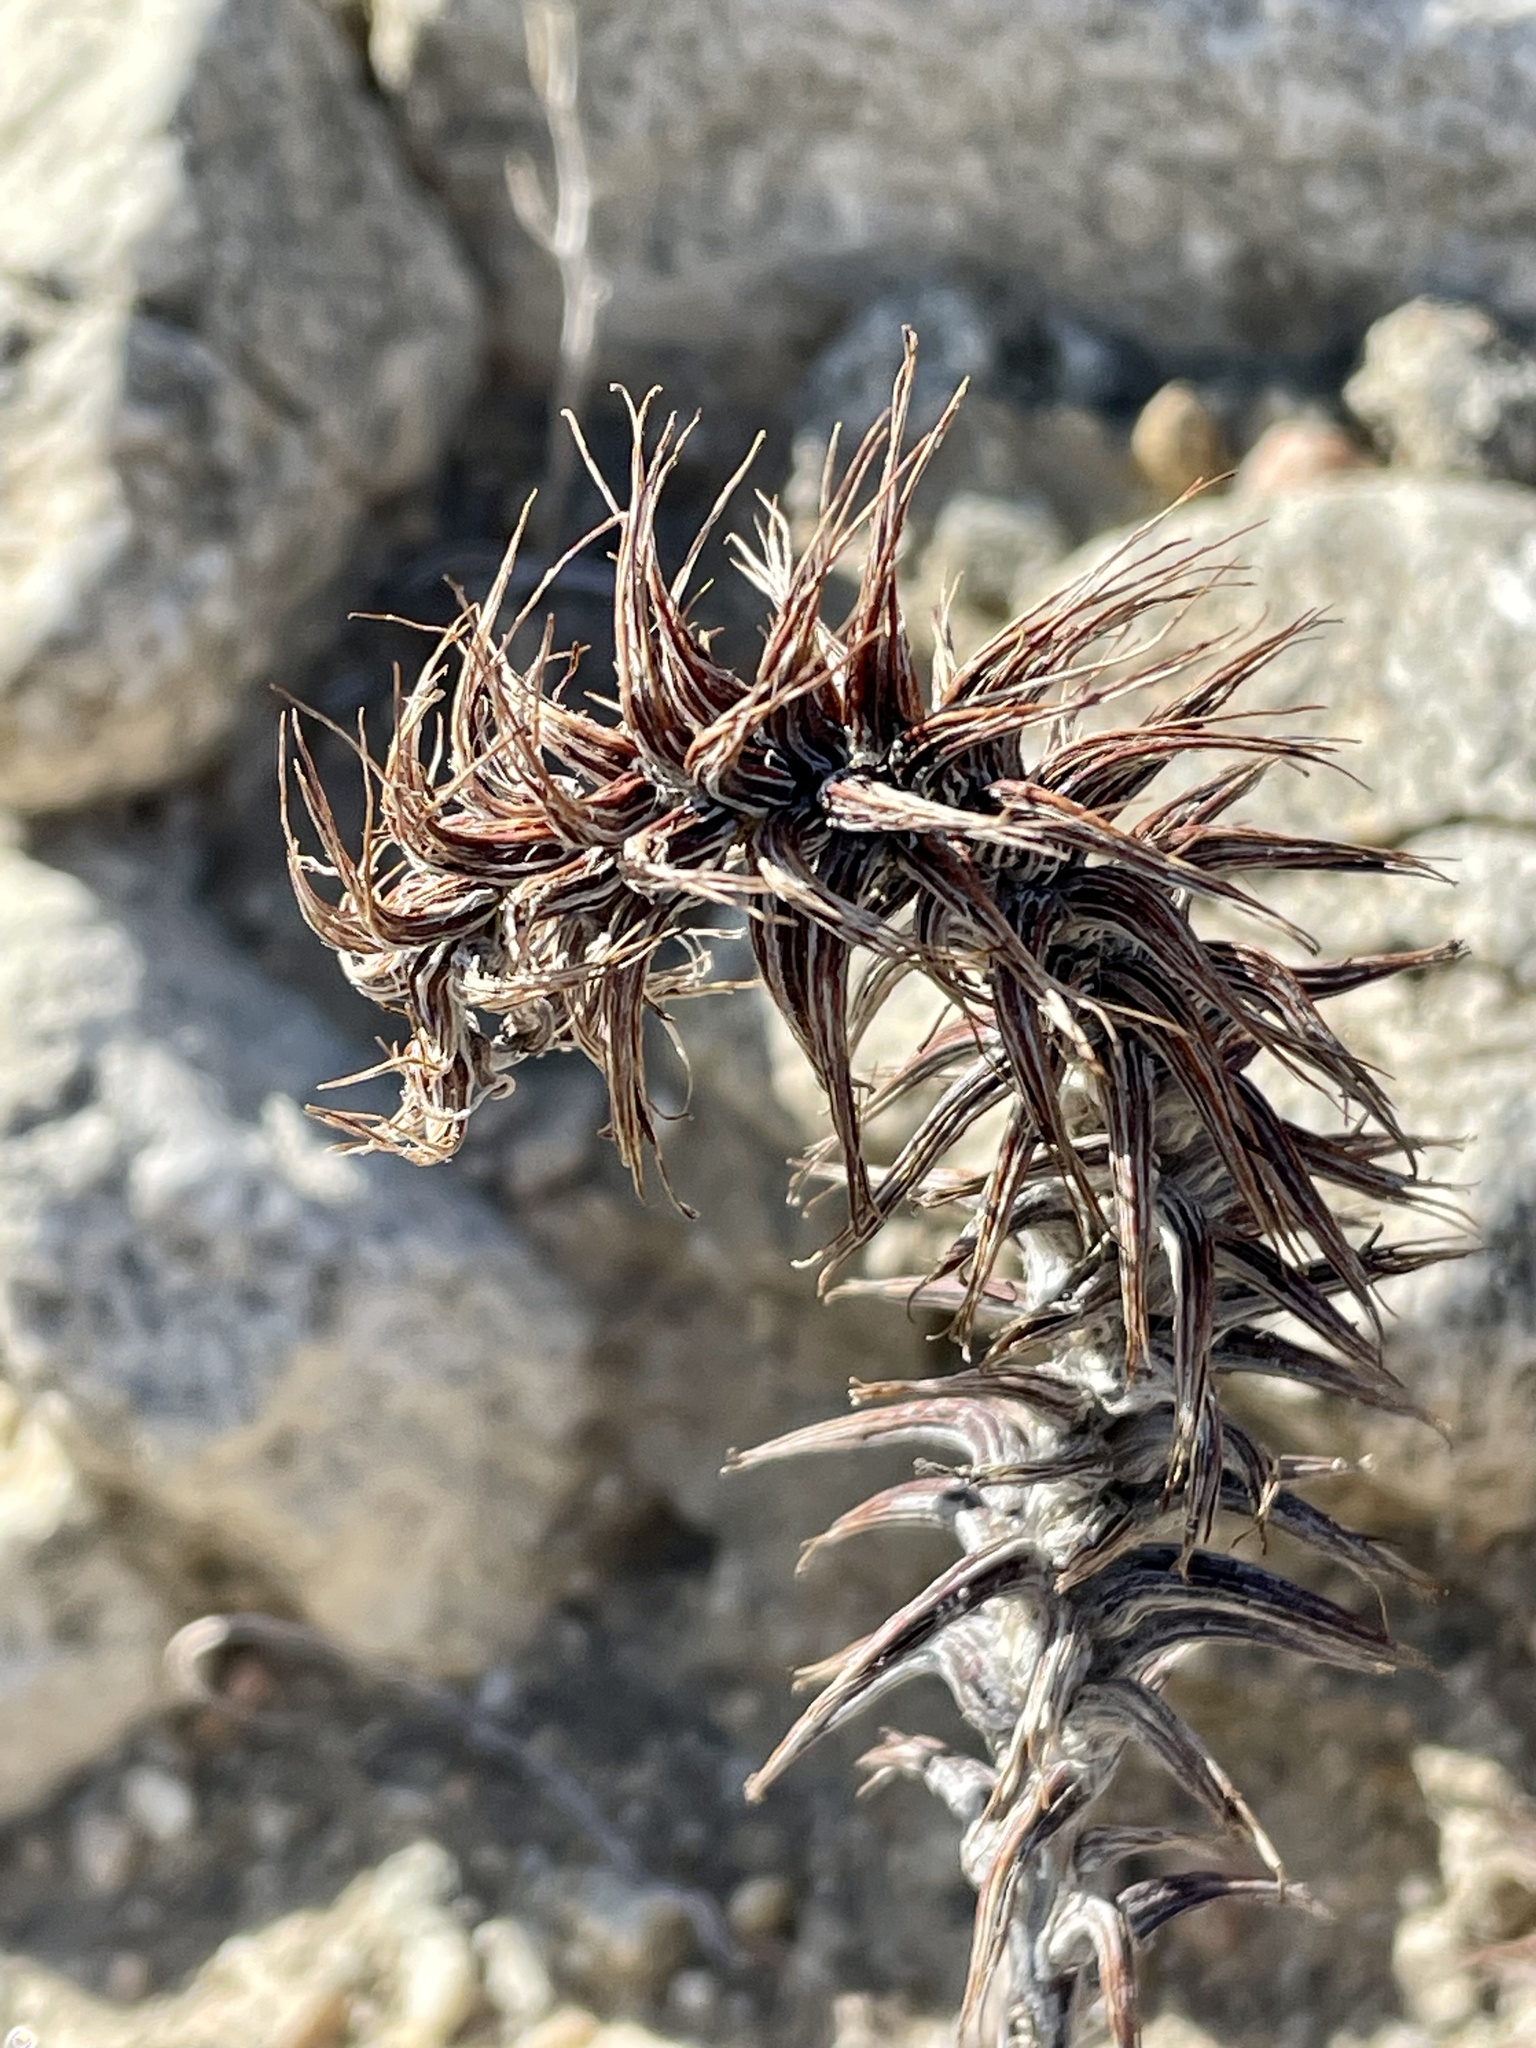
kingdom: Plantae
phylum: Tracheophyta
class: Magnoliopsida
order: Myrtales
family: Onagraceae
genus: Eremothera
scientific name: Eremothera boothii
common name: Booth's evening primrose
